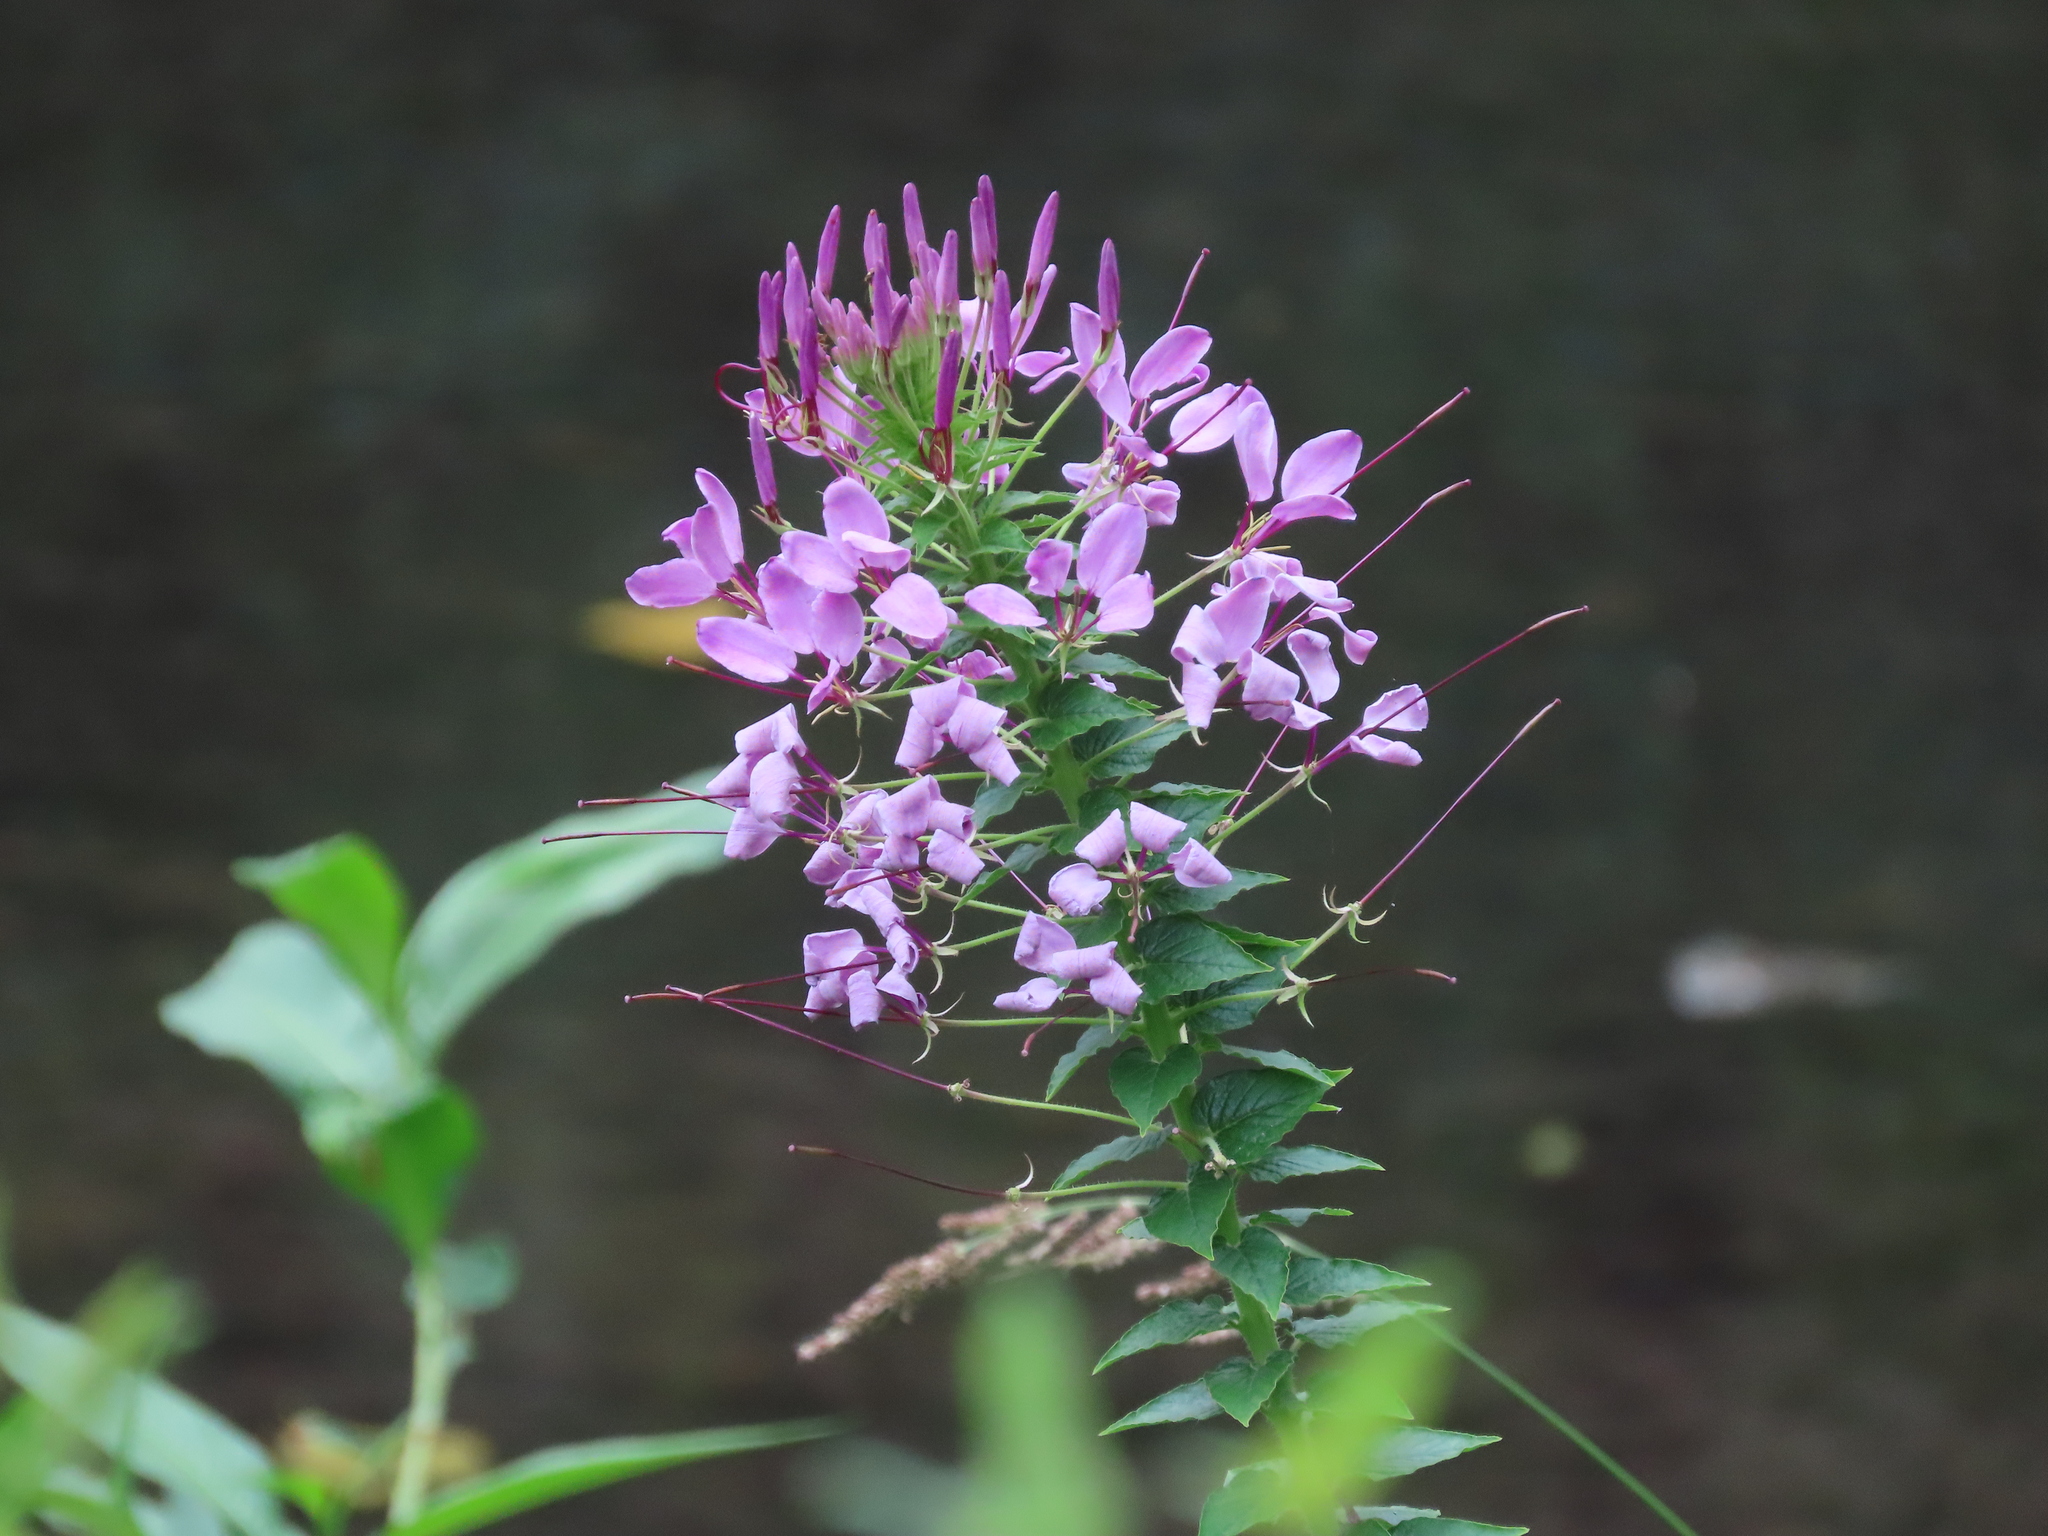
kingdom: Plantae
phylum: Tracheophyta
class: Magnoliopsida
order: Brassicales
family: Cleomaceae
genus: Tarenaya
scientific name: Tarenaya houtteana
